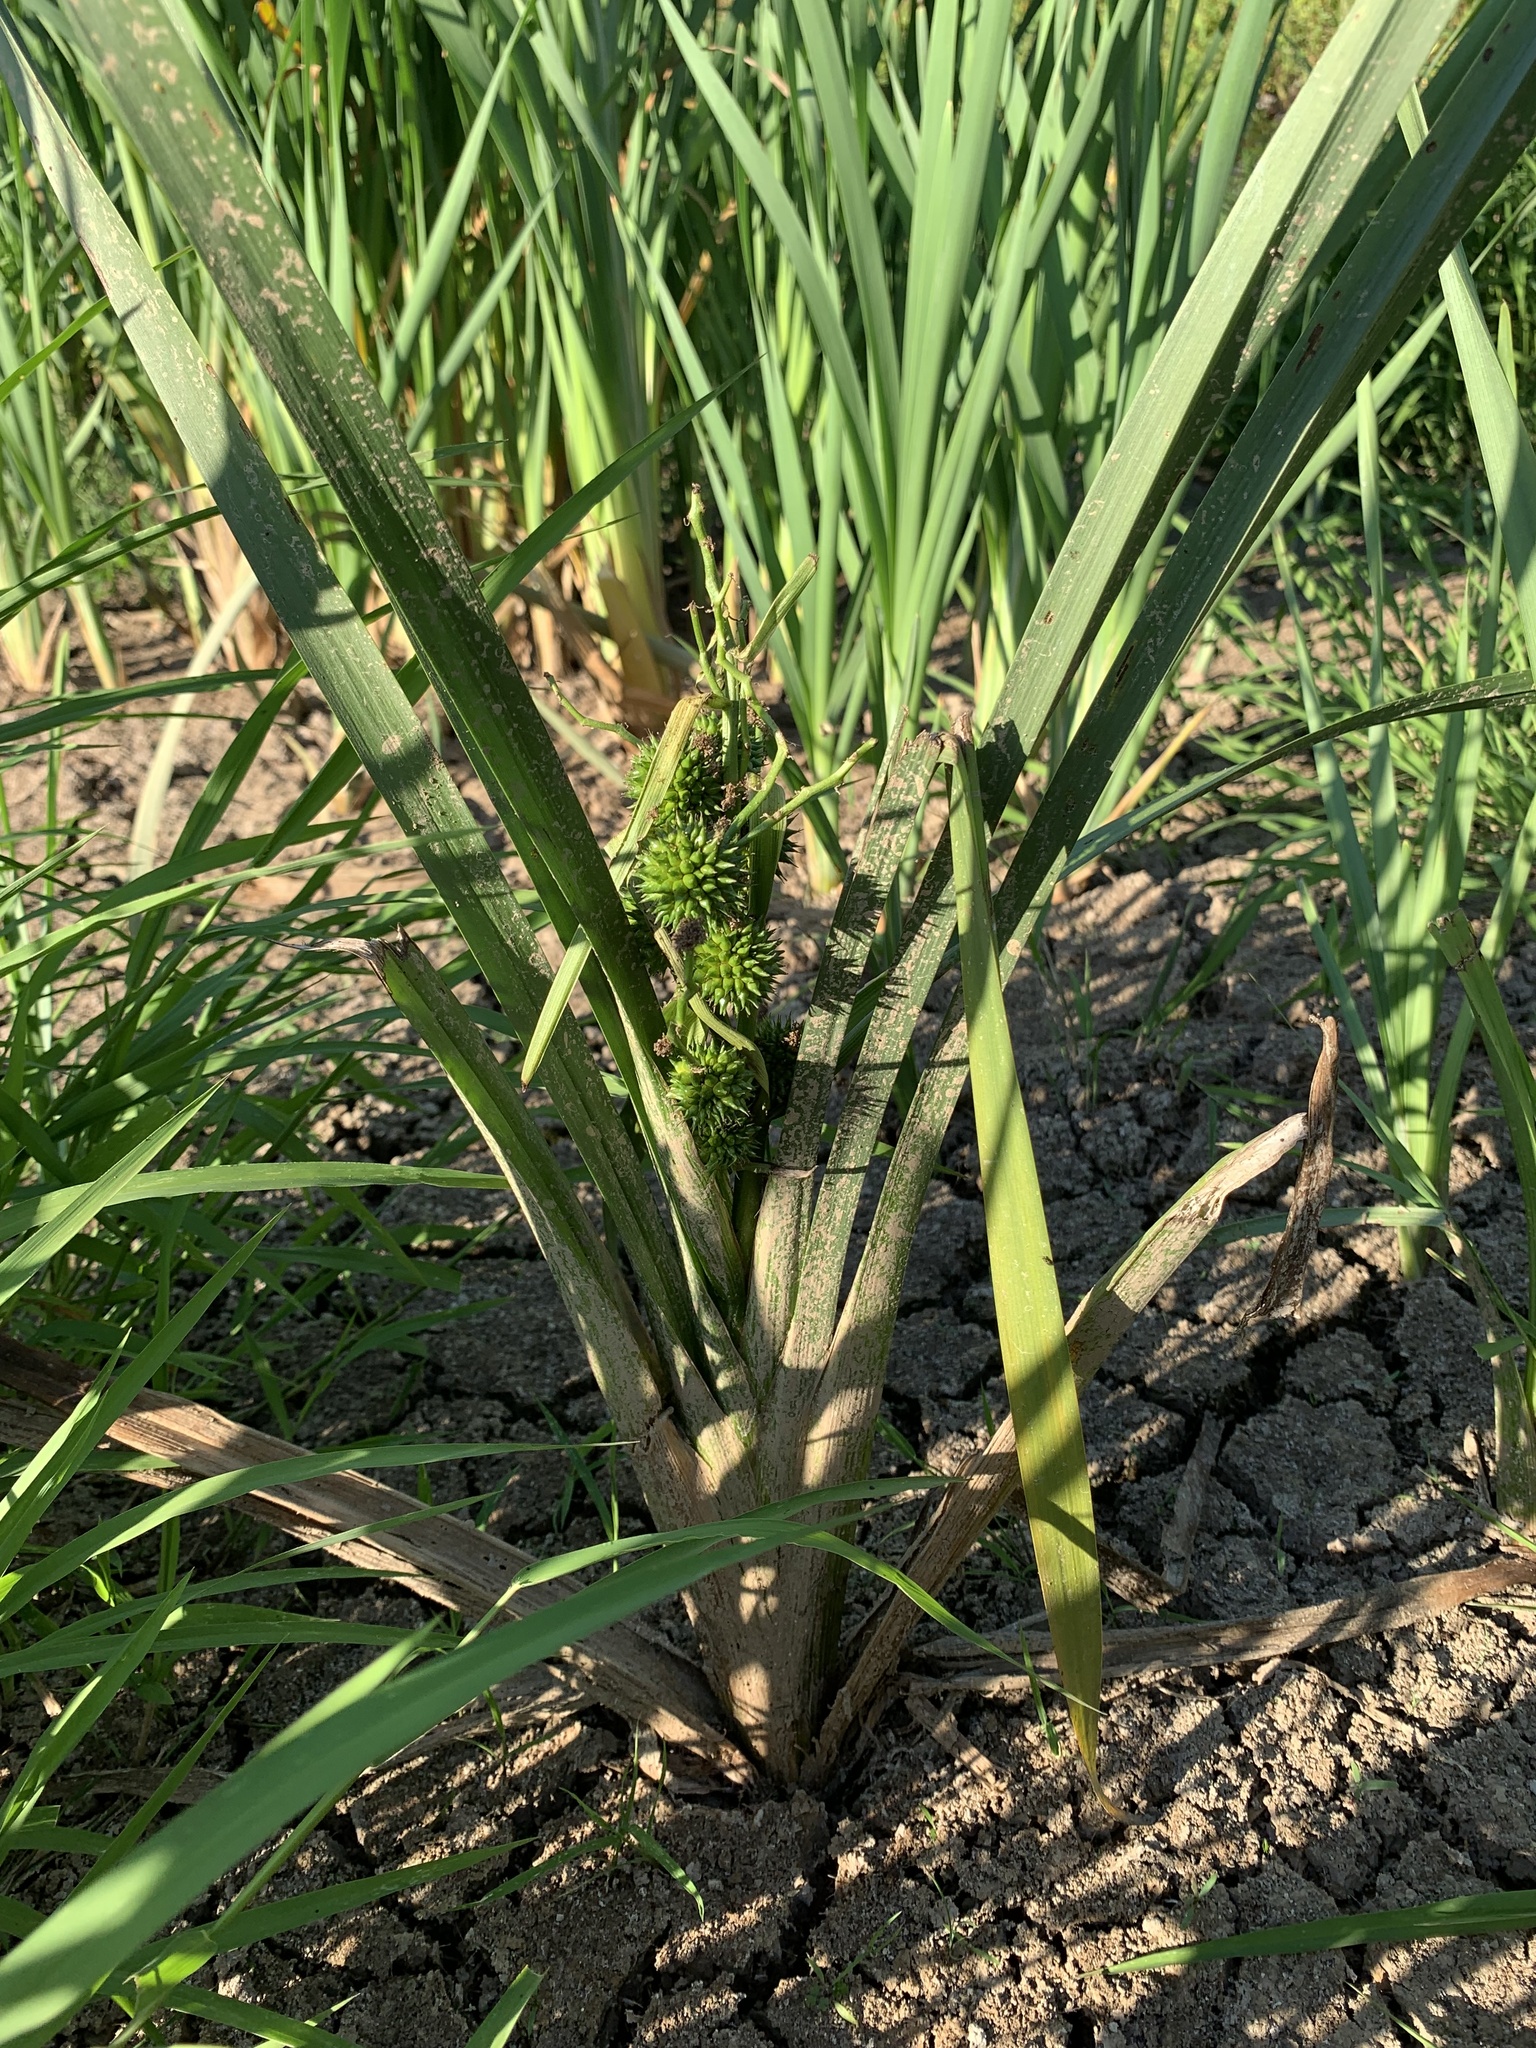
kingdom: Plantae
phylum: Tracheophyta
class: Liliopsida
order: Poales
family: Typhaceae
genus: Sparganium
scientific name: Sparganium erectum
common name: Branched bur-reed
